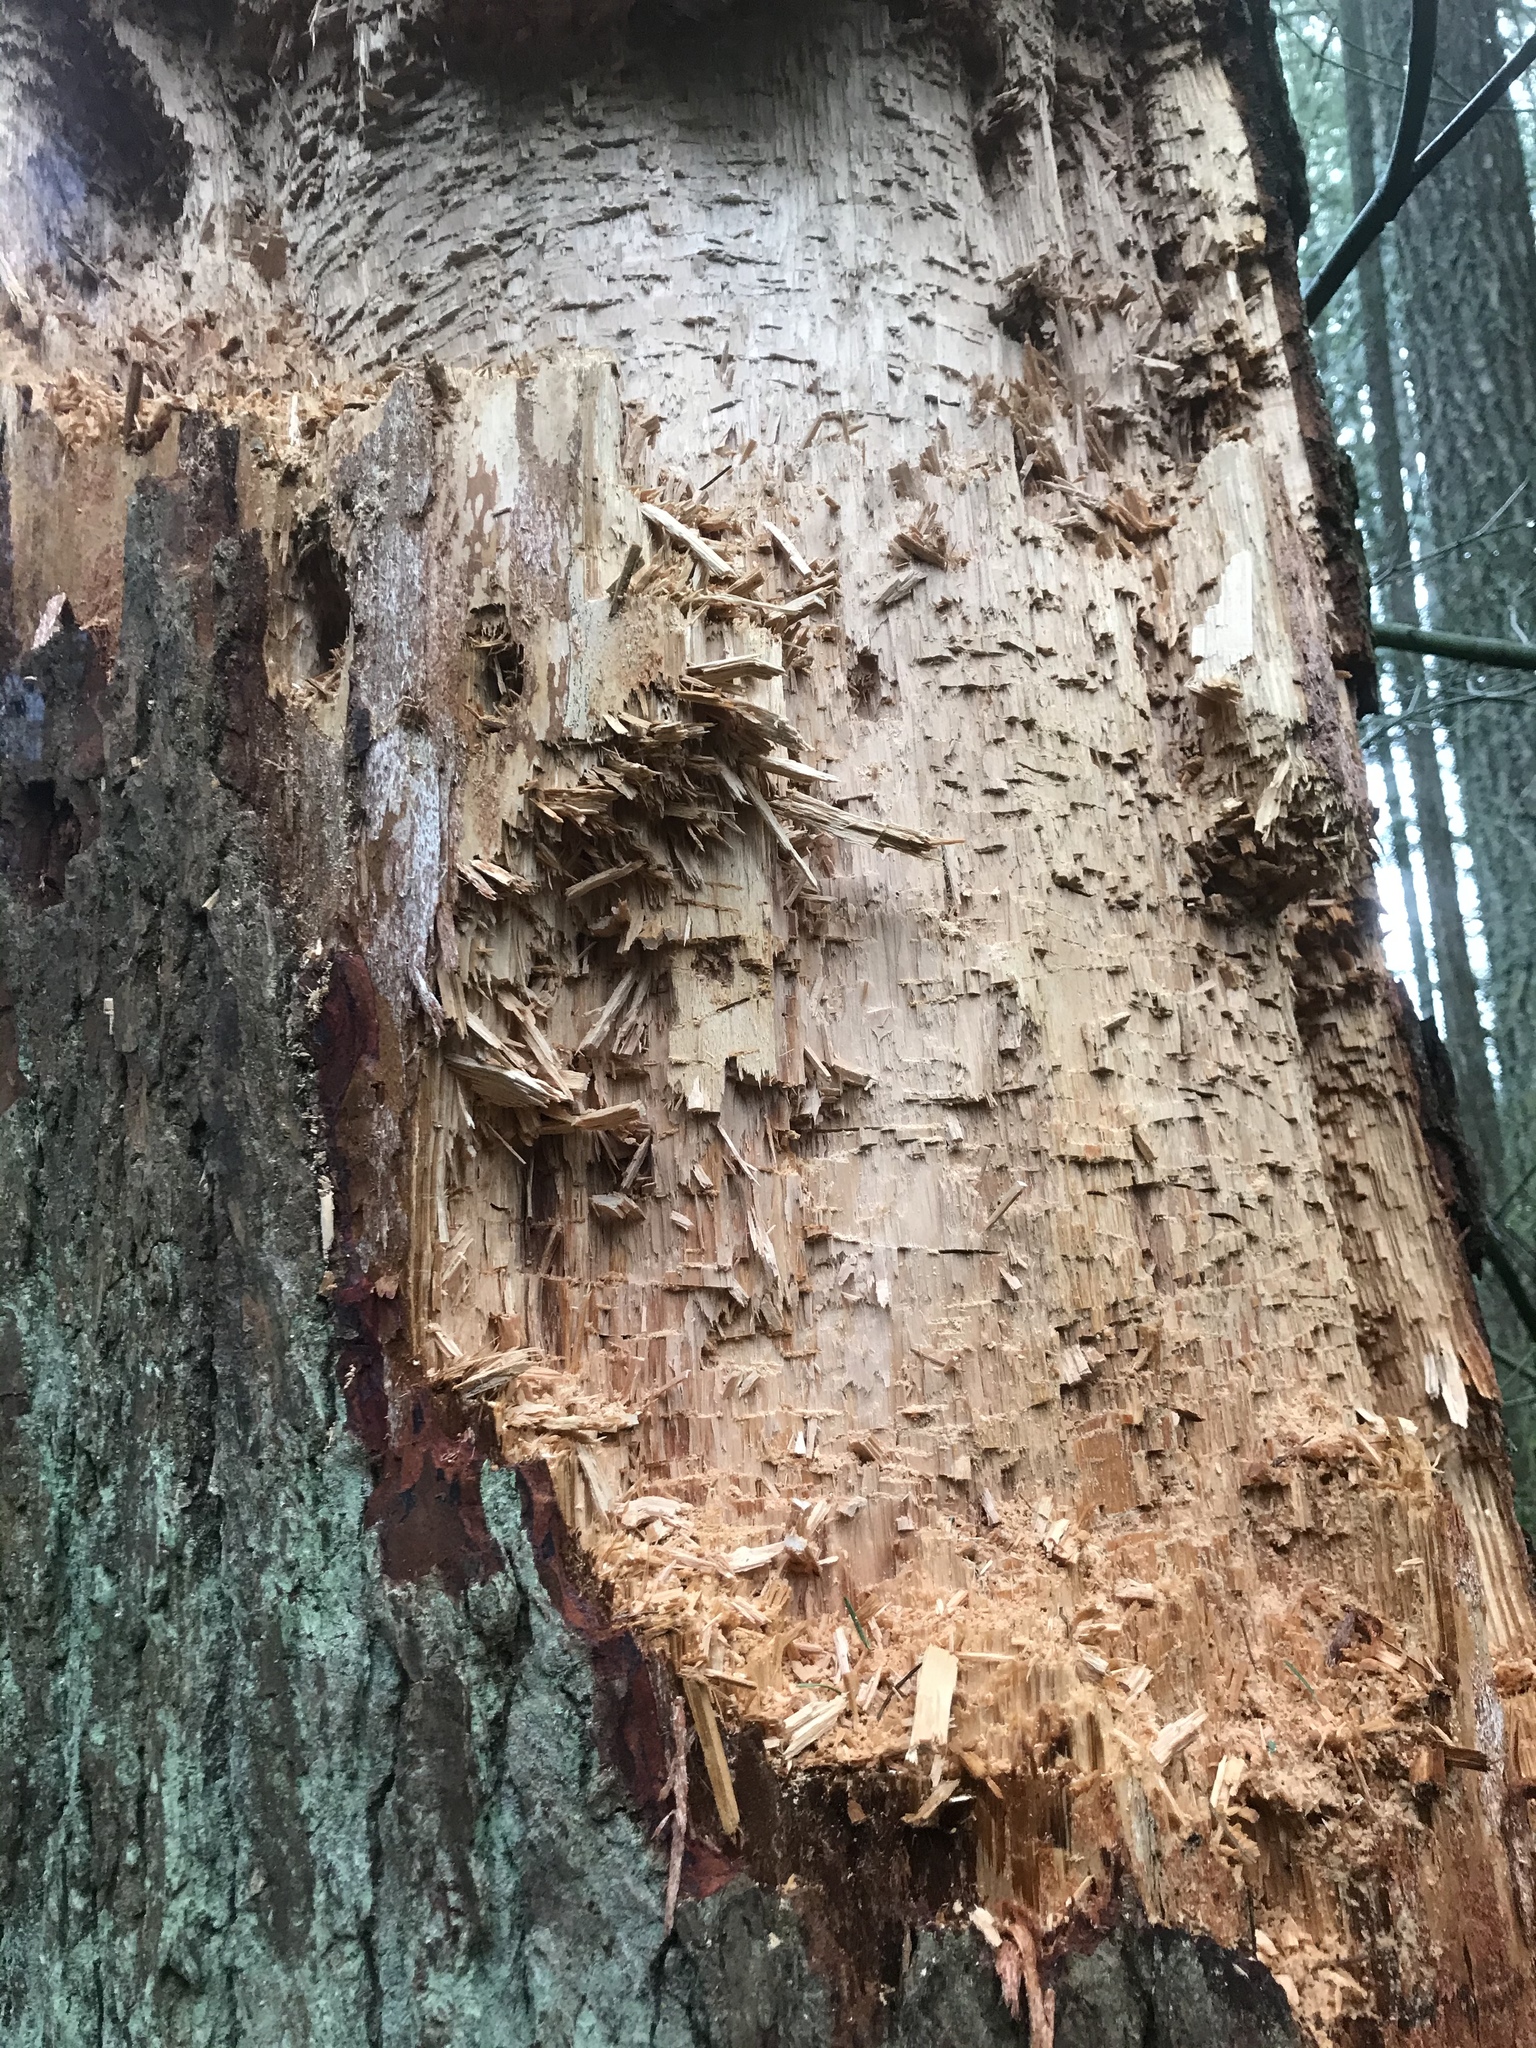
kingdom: Animalia
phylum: Chordata
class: Aves
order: Piciformes
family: Picidae
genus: Dryocopus
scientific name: Dryocopus pileatus
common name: Pileated woodpecker
